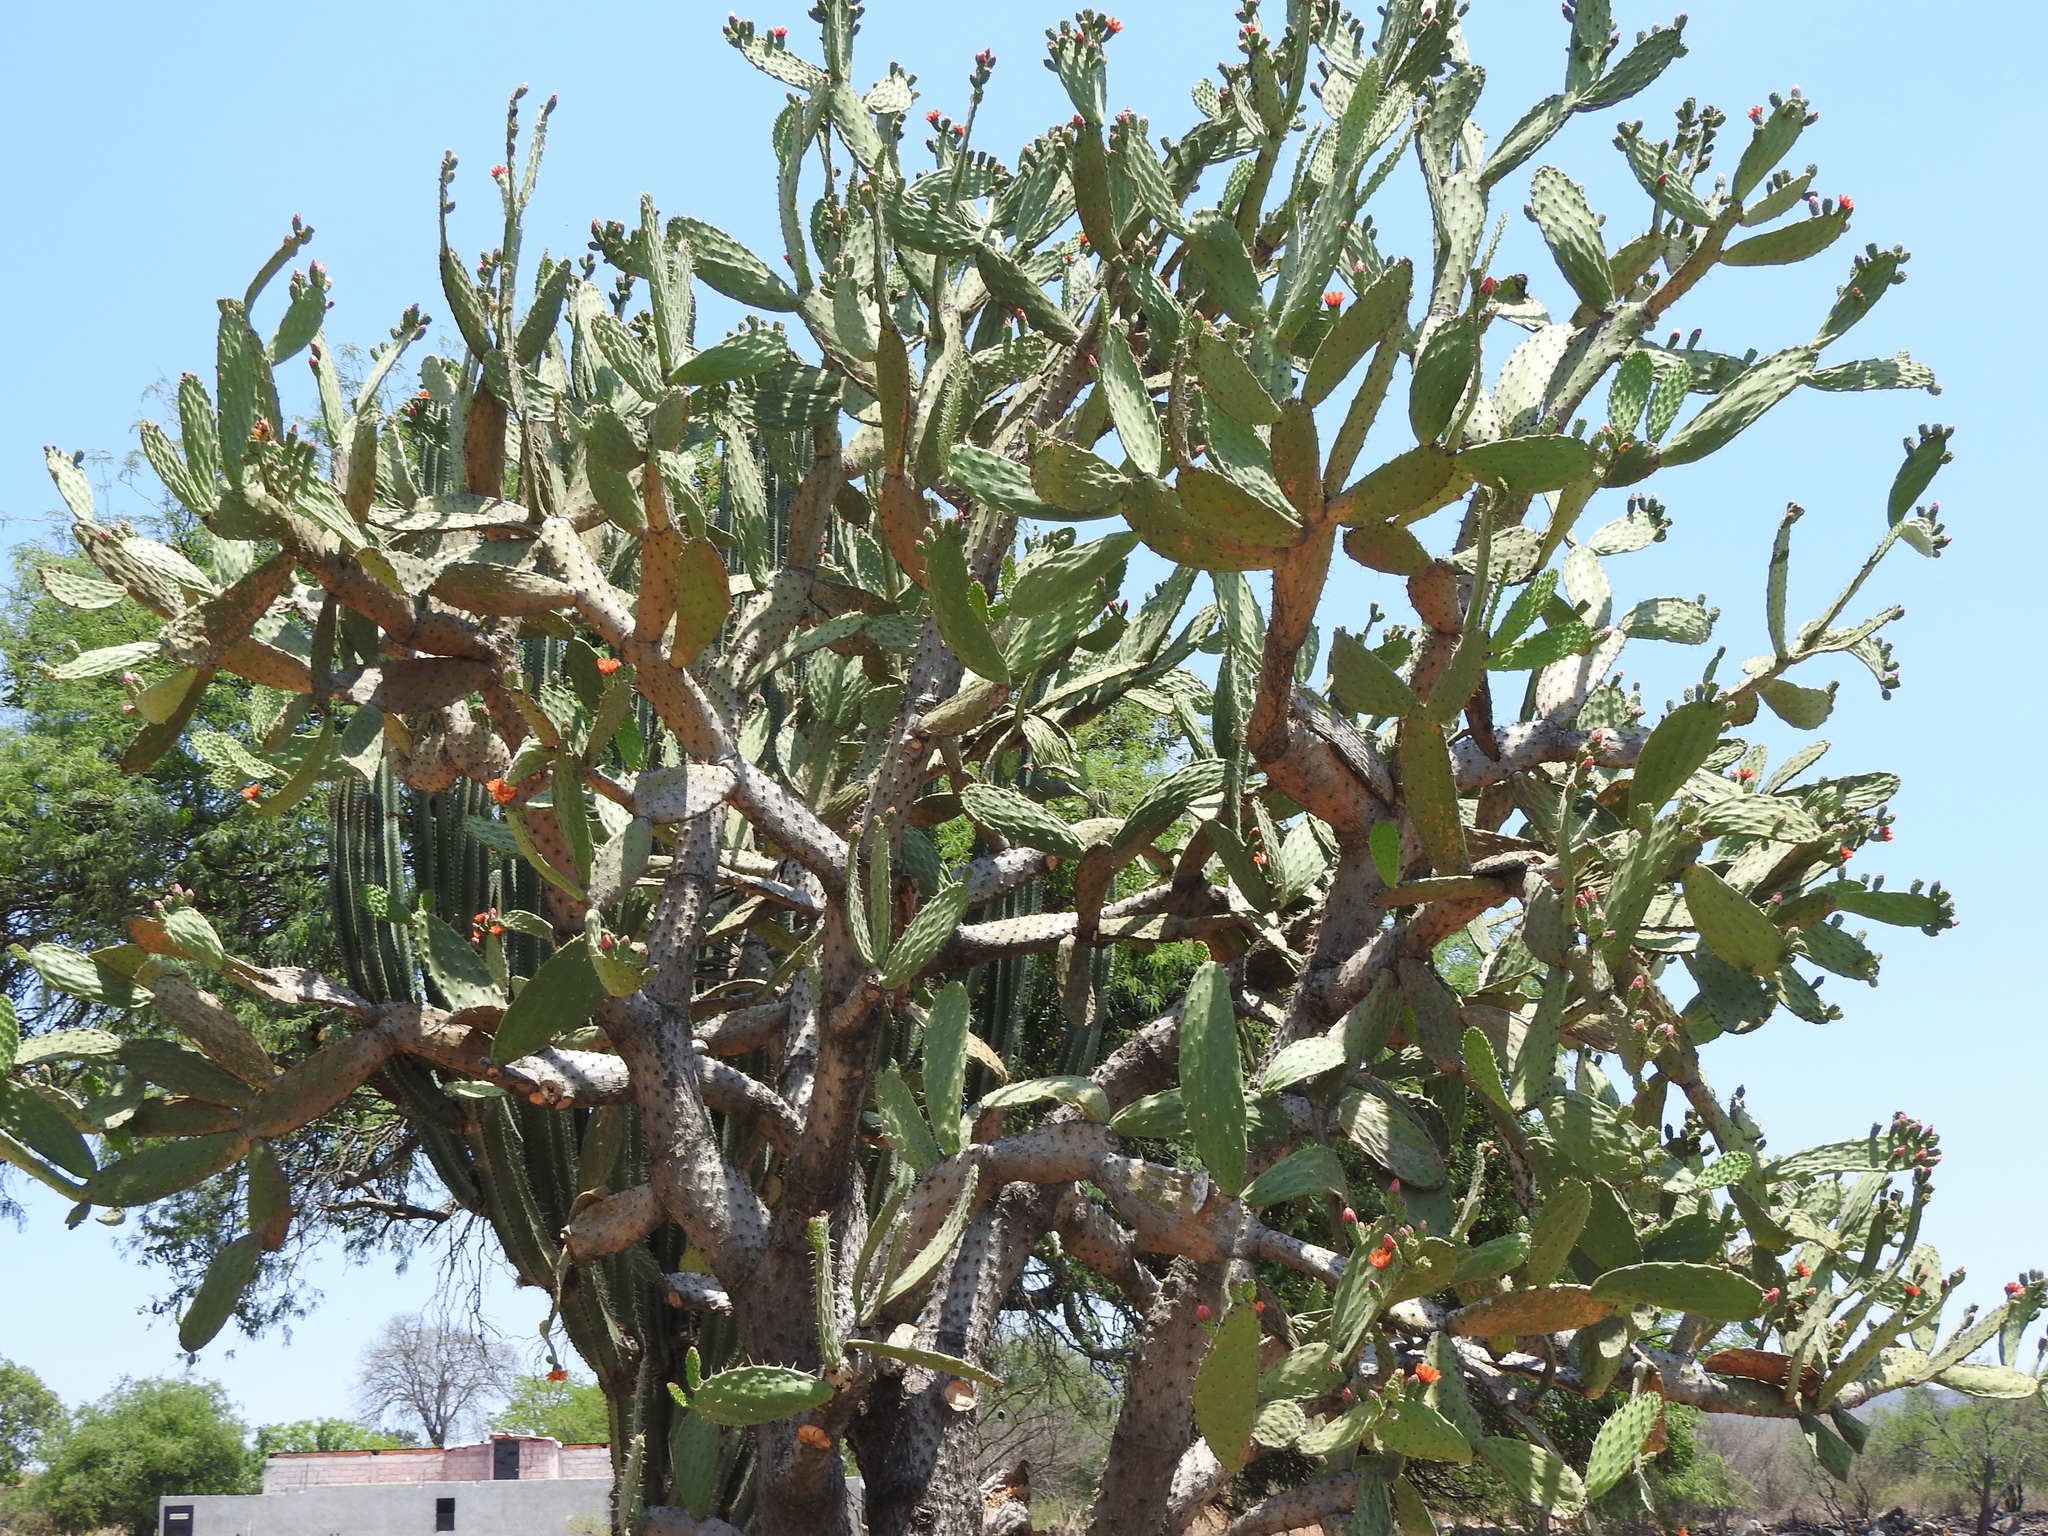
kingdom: Plantae
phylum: Tracheophyta
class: Magnoliopsida
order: Caryophyllales
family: Cactaceae
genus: Opuntia
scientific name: Opuntia jaliscana
